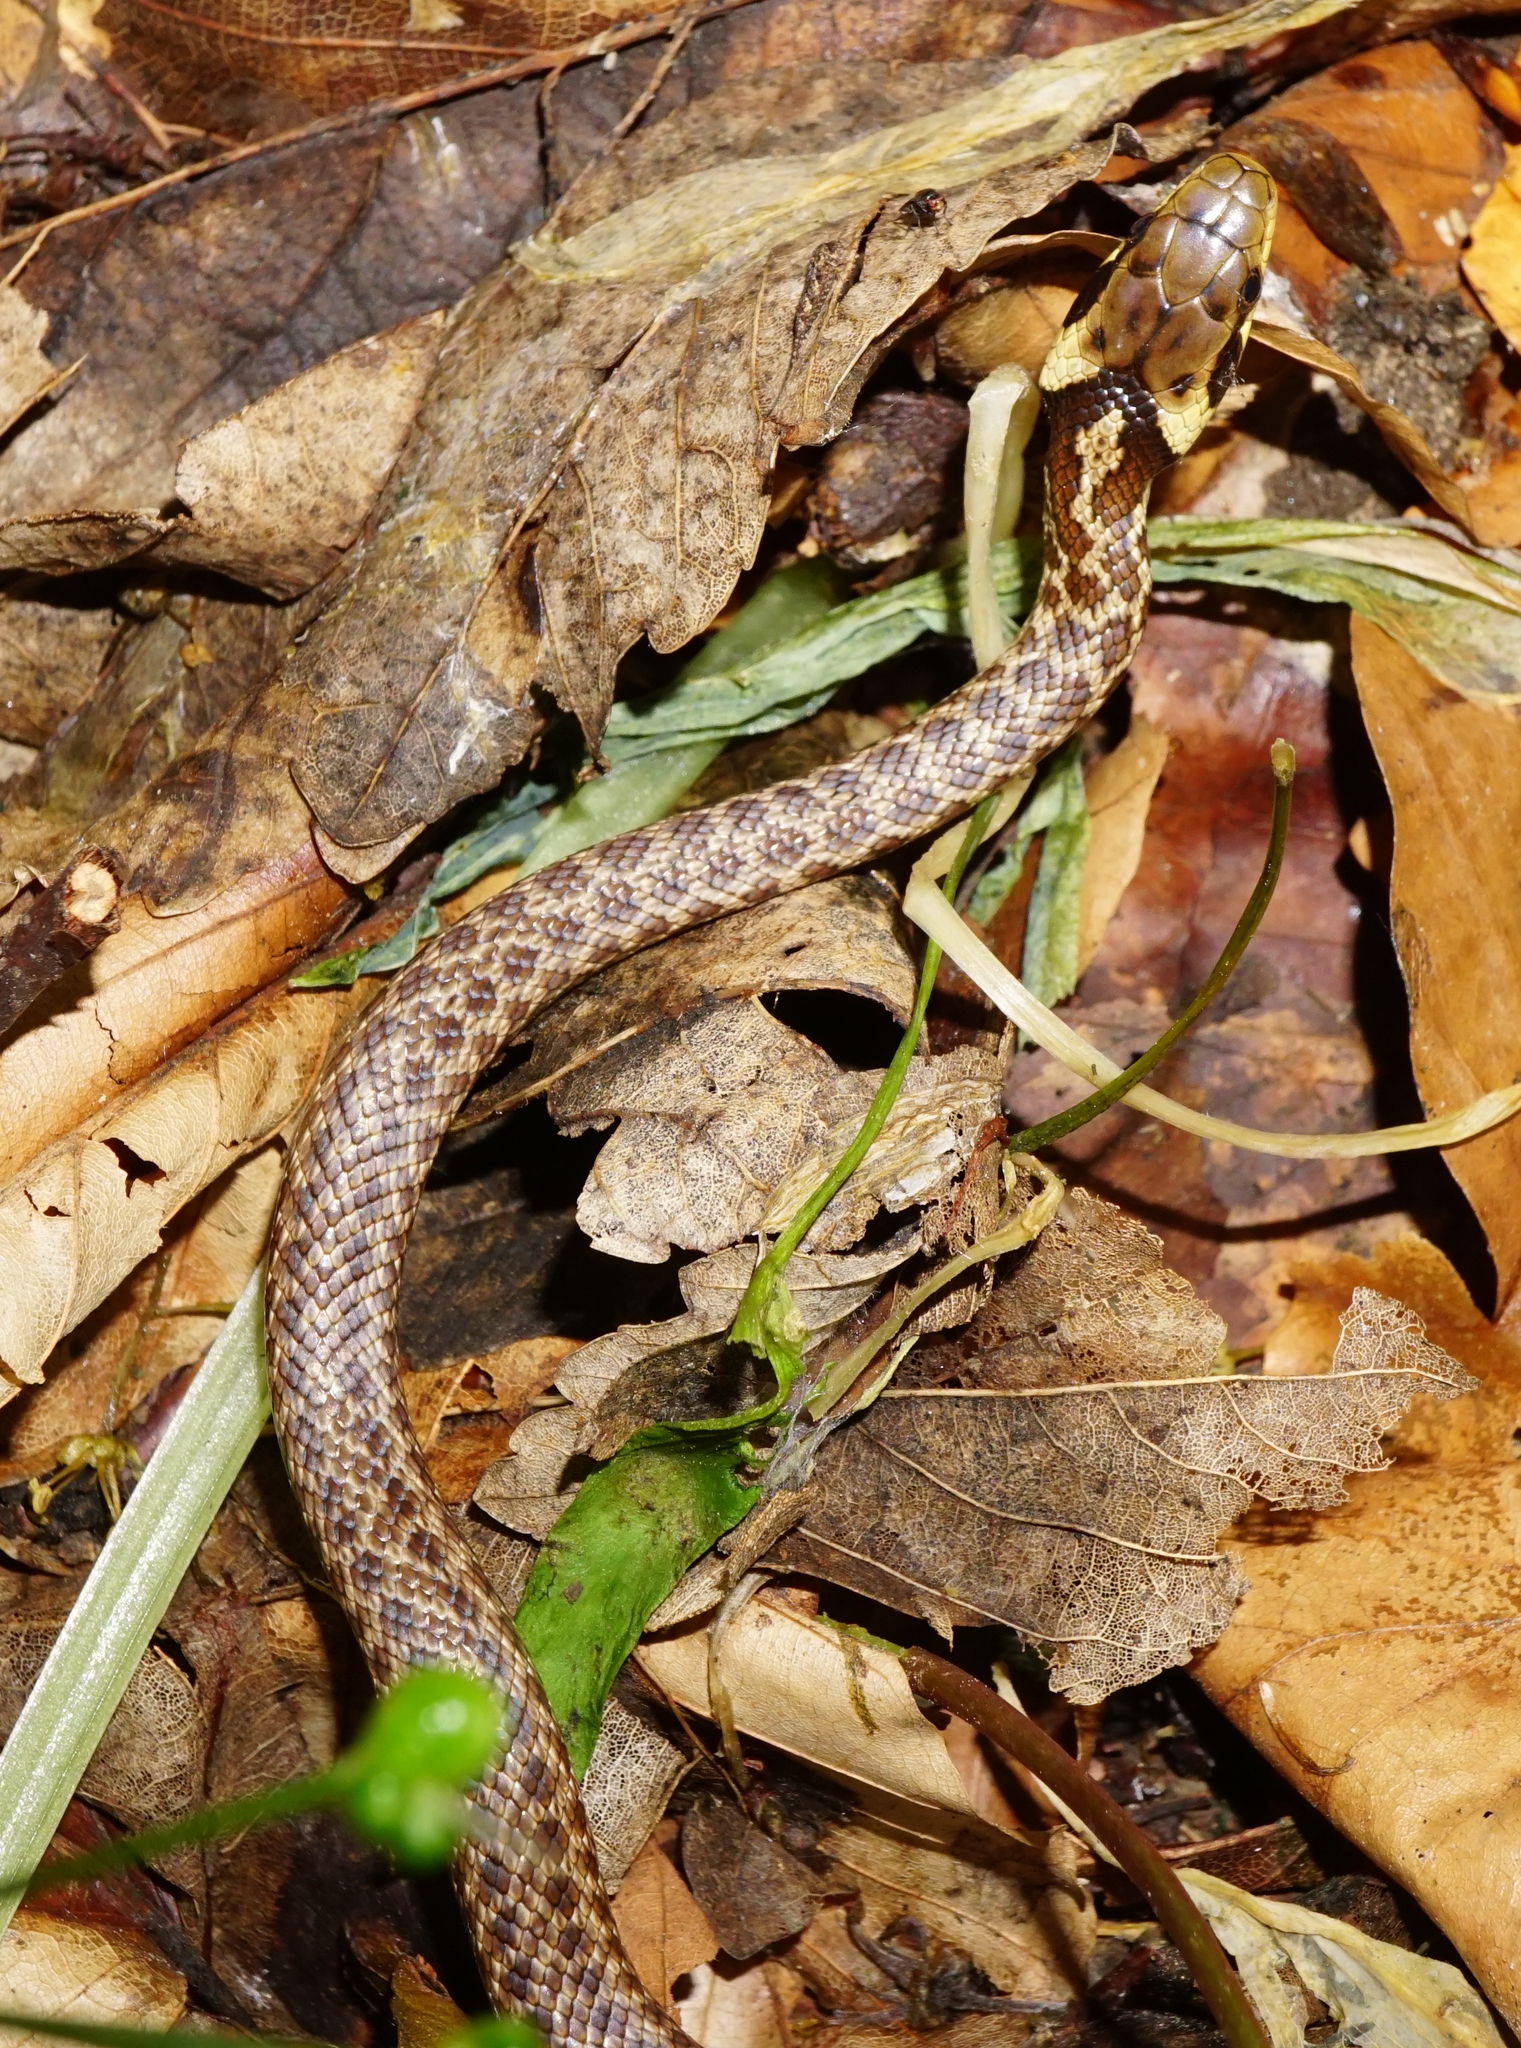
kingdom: Animalia
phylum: Chordata
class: Squamata
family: Colubridae
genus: Zamenis
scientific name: Zamenis longissimus
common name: Aesculapean snake
